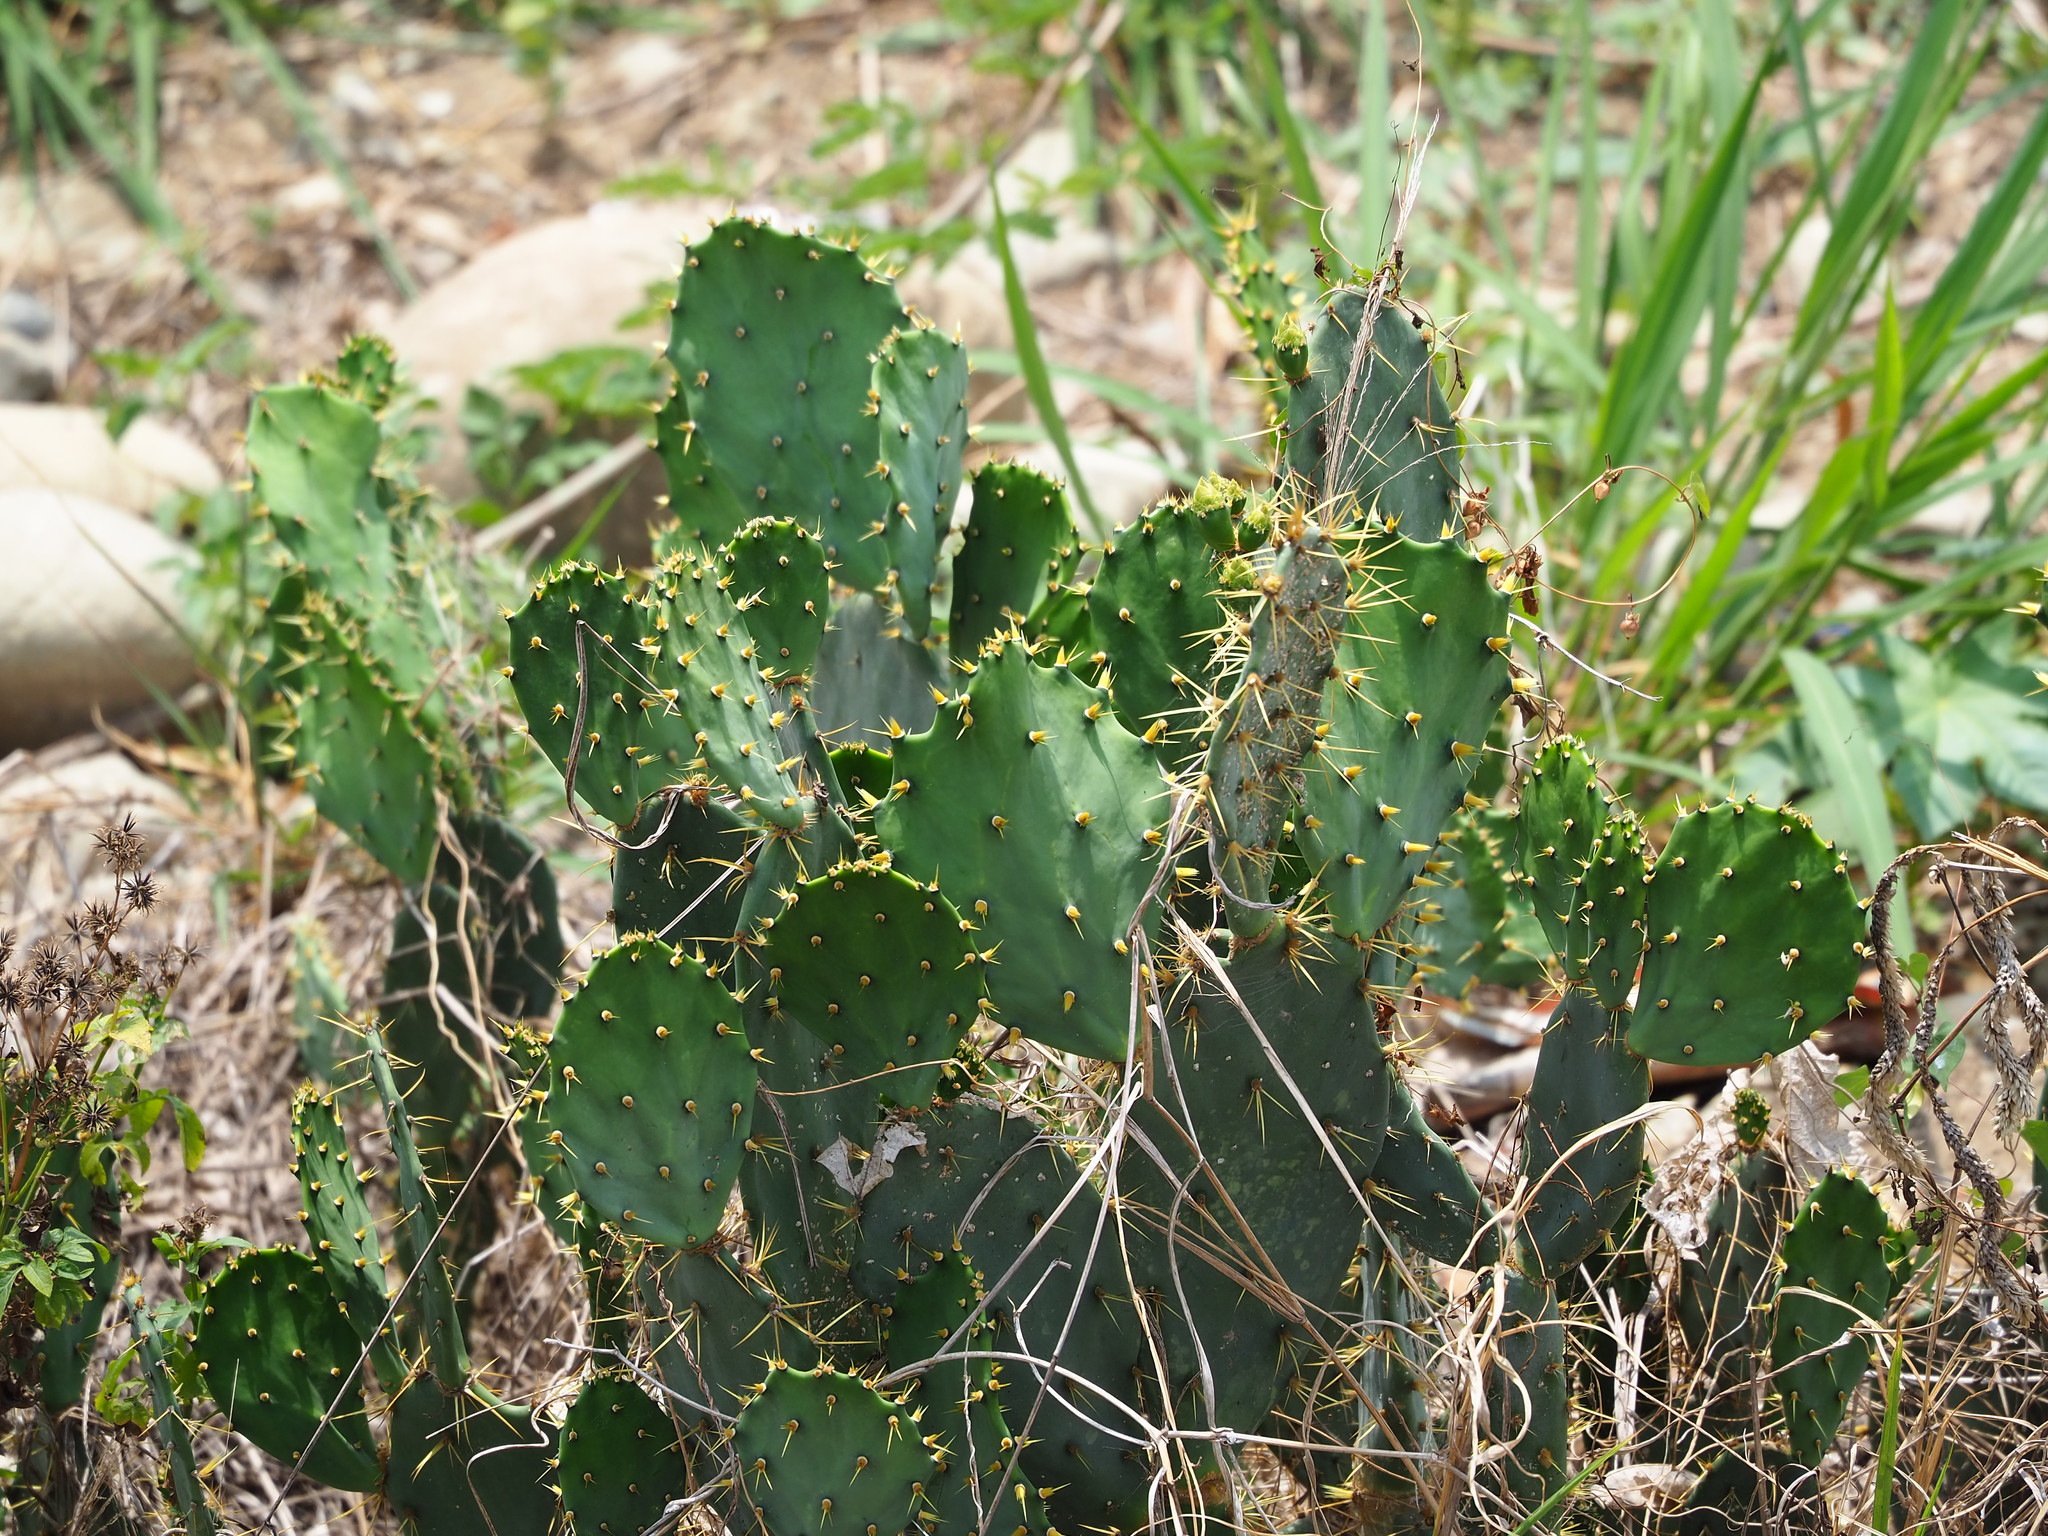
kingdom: Plantae
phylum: Tracheophyta
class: Magnoliopsida
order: Caryophyllales
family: Cactaceae
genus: Opuntia
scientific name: Opuntia dillenii
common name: Sour prickle
